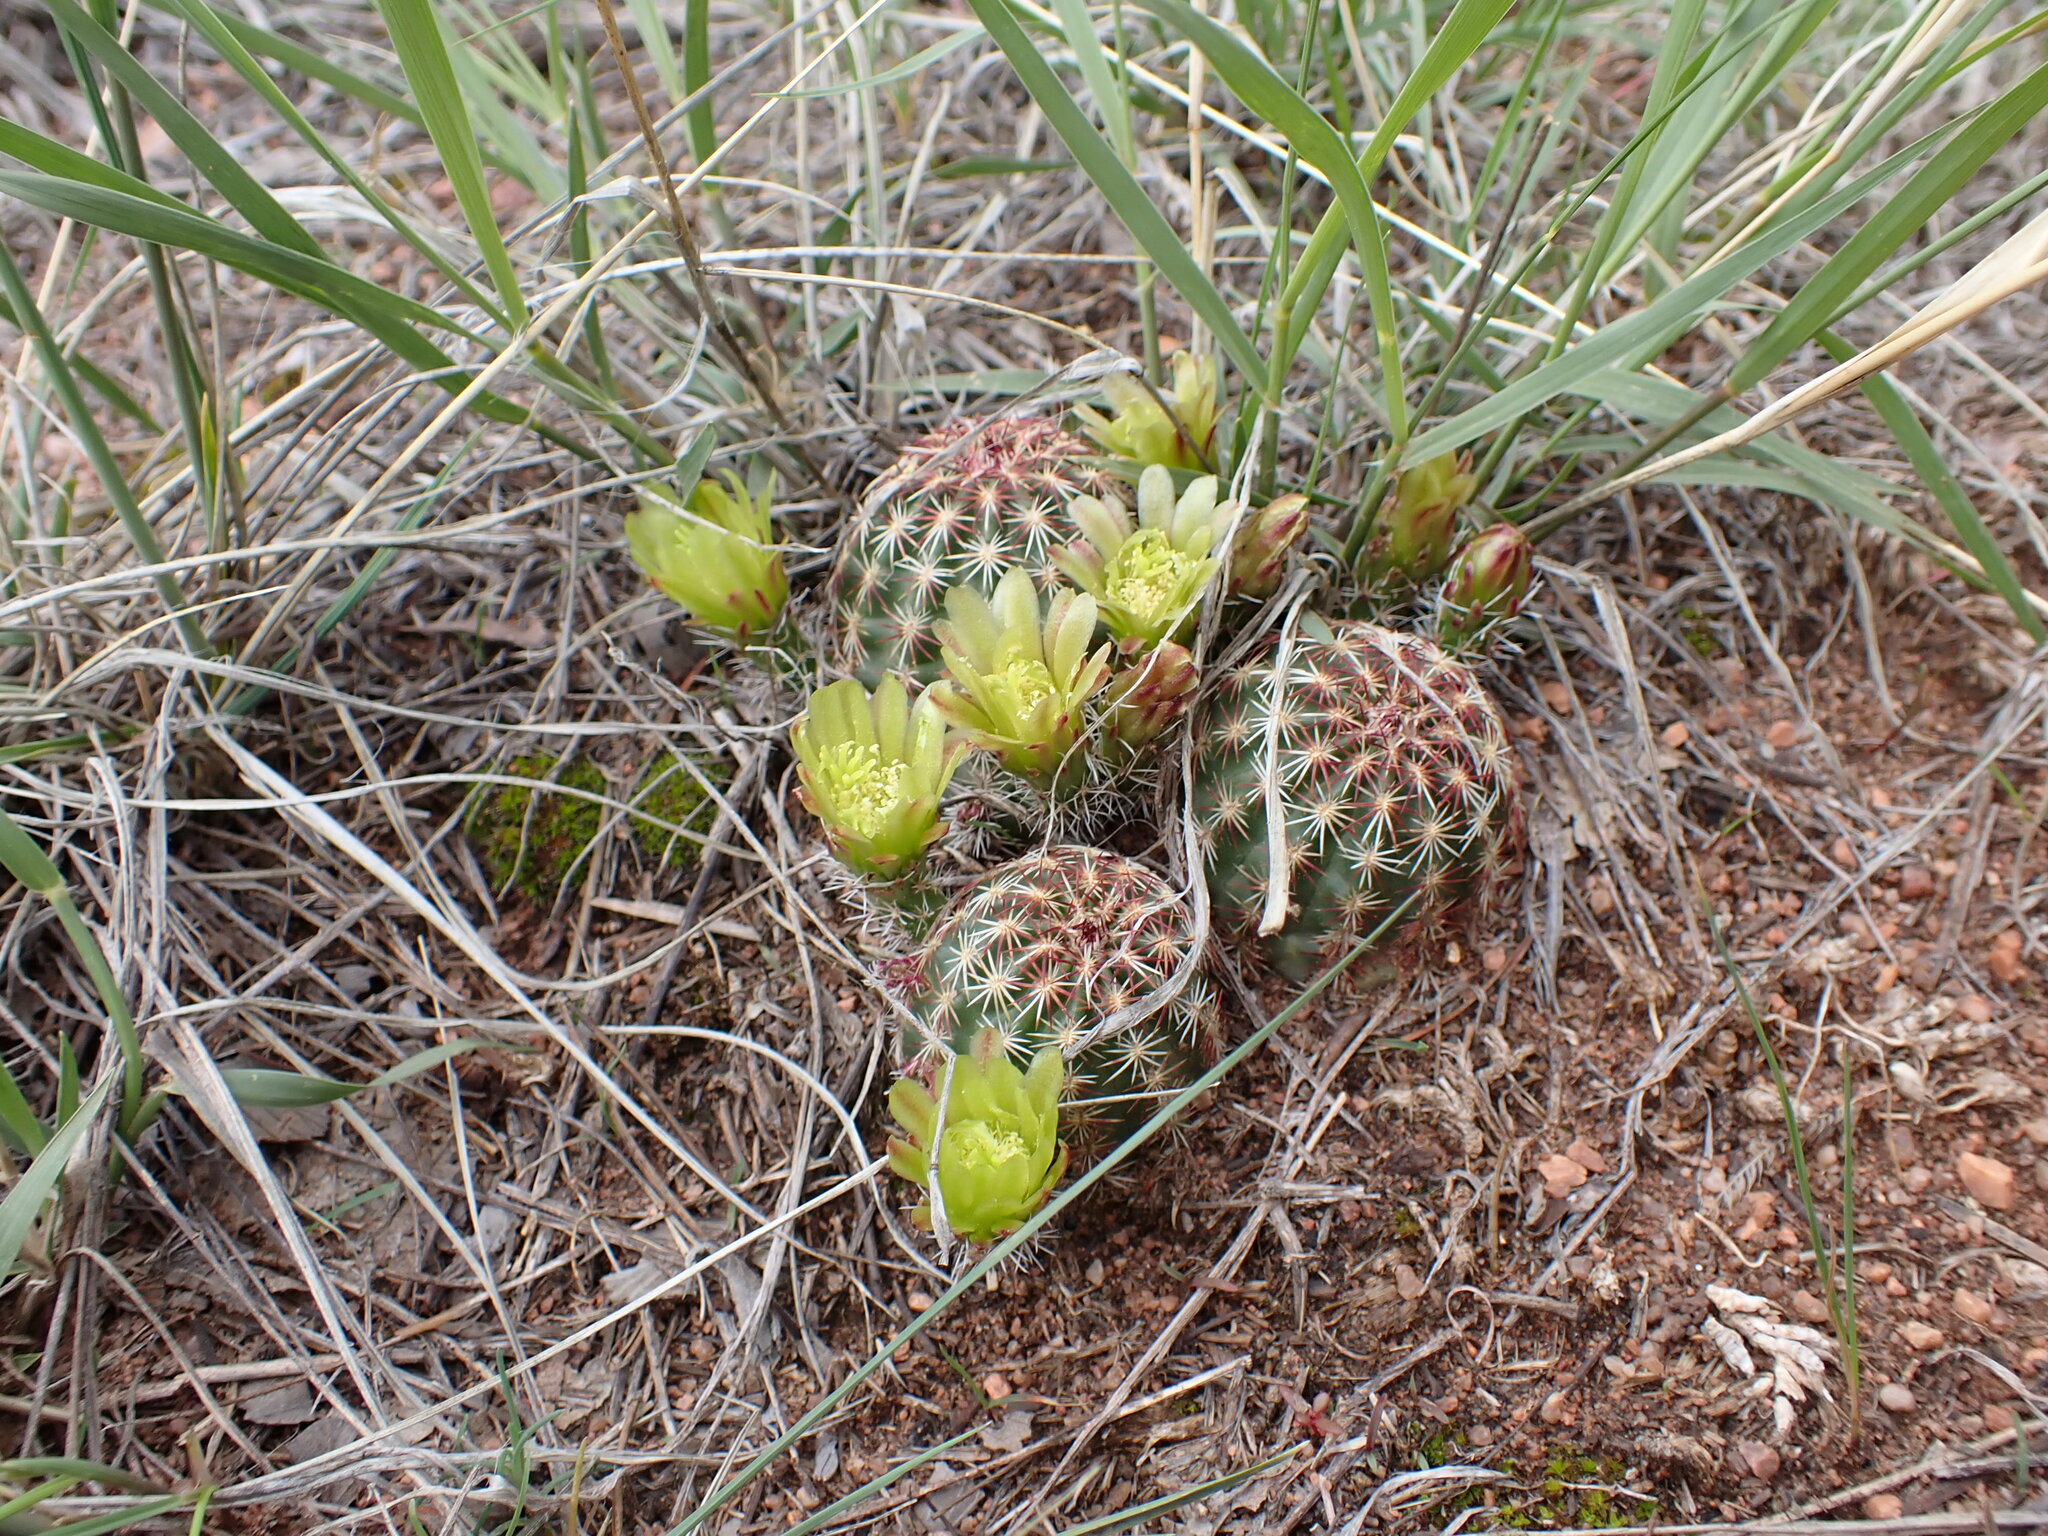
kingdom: Plantae
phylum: Tracheophyta
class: Magnoliopsida
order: Caryophyllales
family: Cactaceae
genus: Echinocereus
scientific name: Echinocereus viridiflorus
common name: Nylon hedgehog cactus
